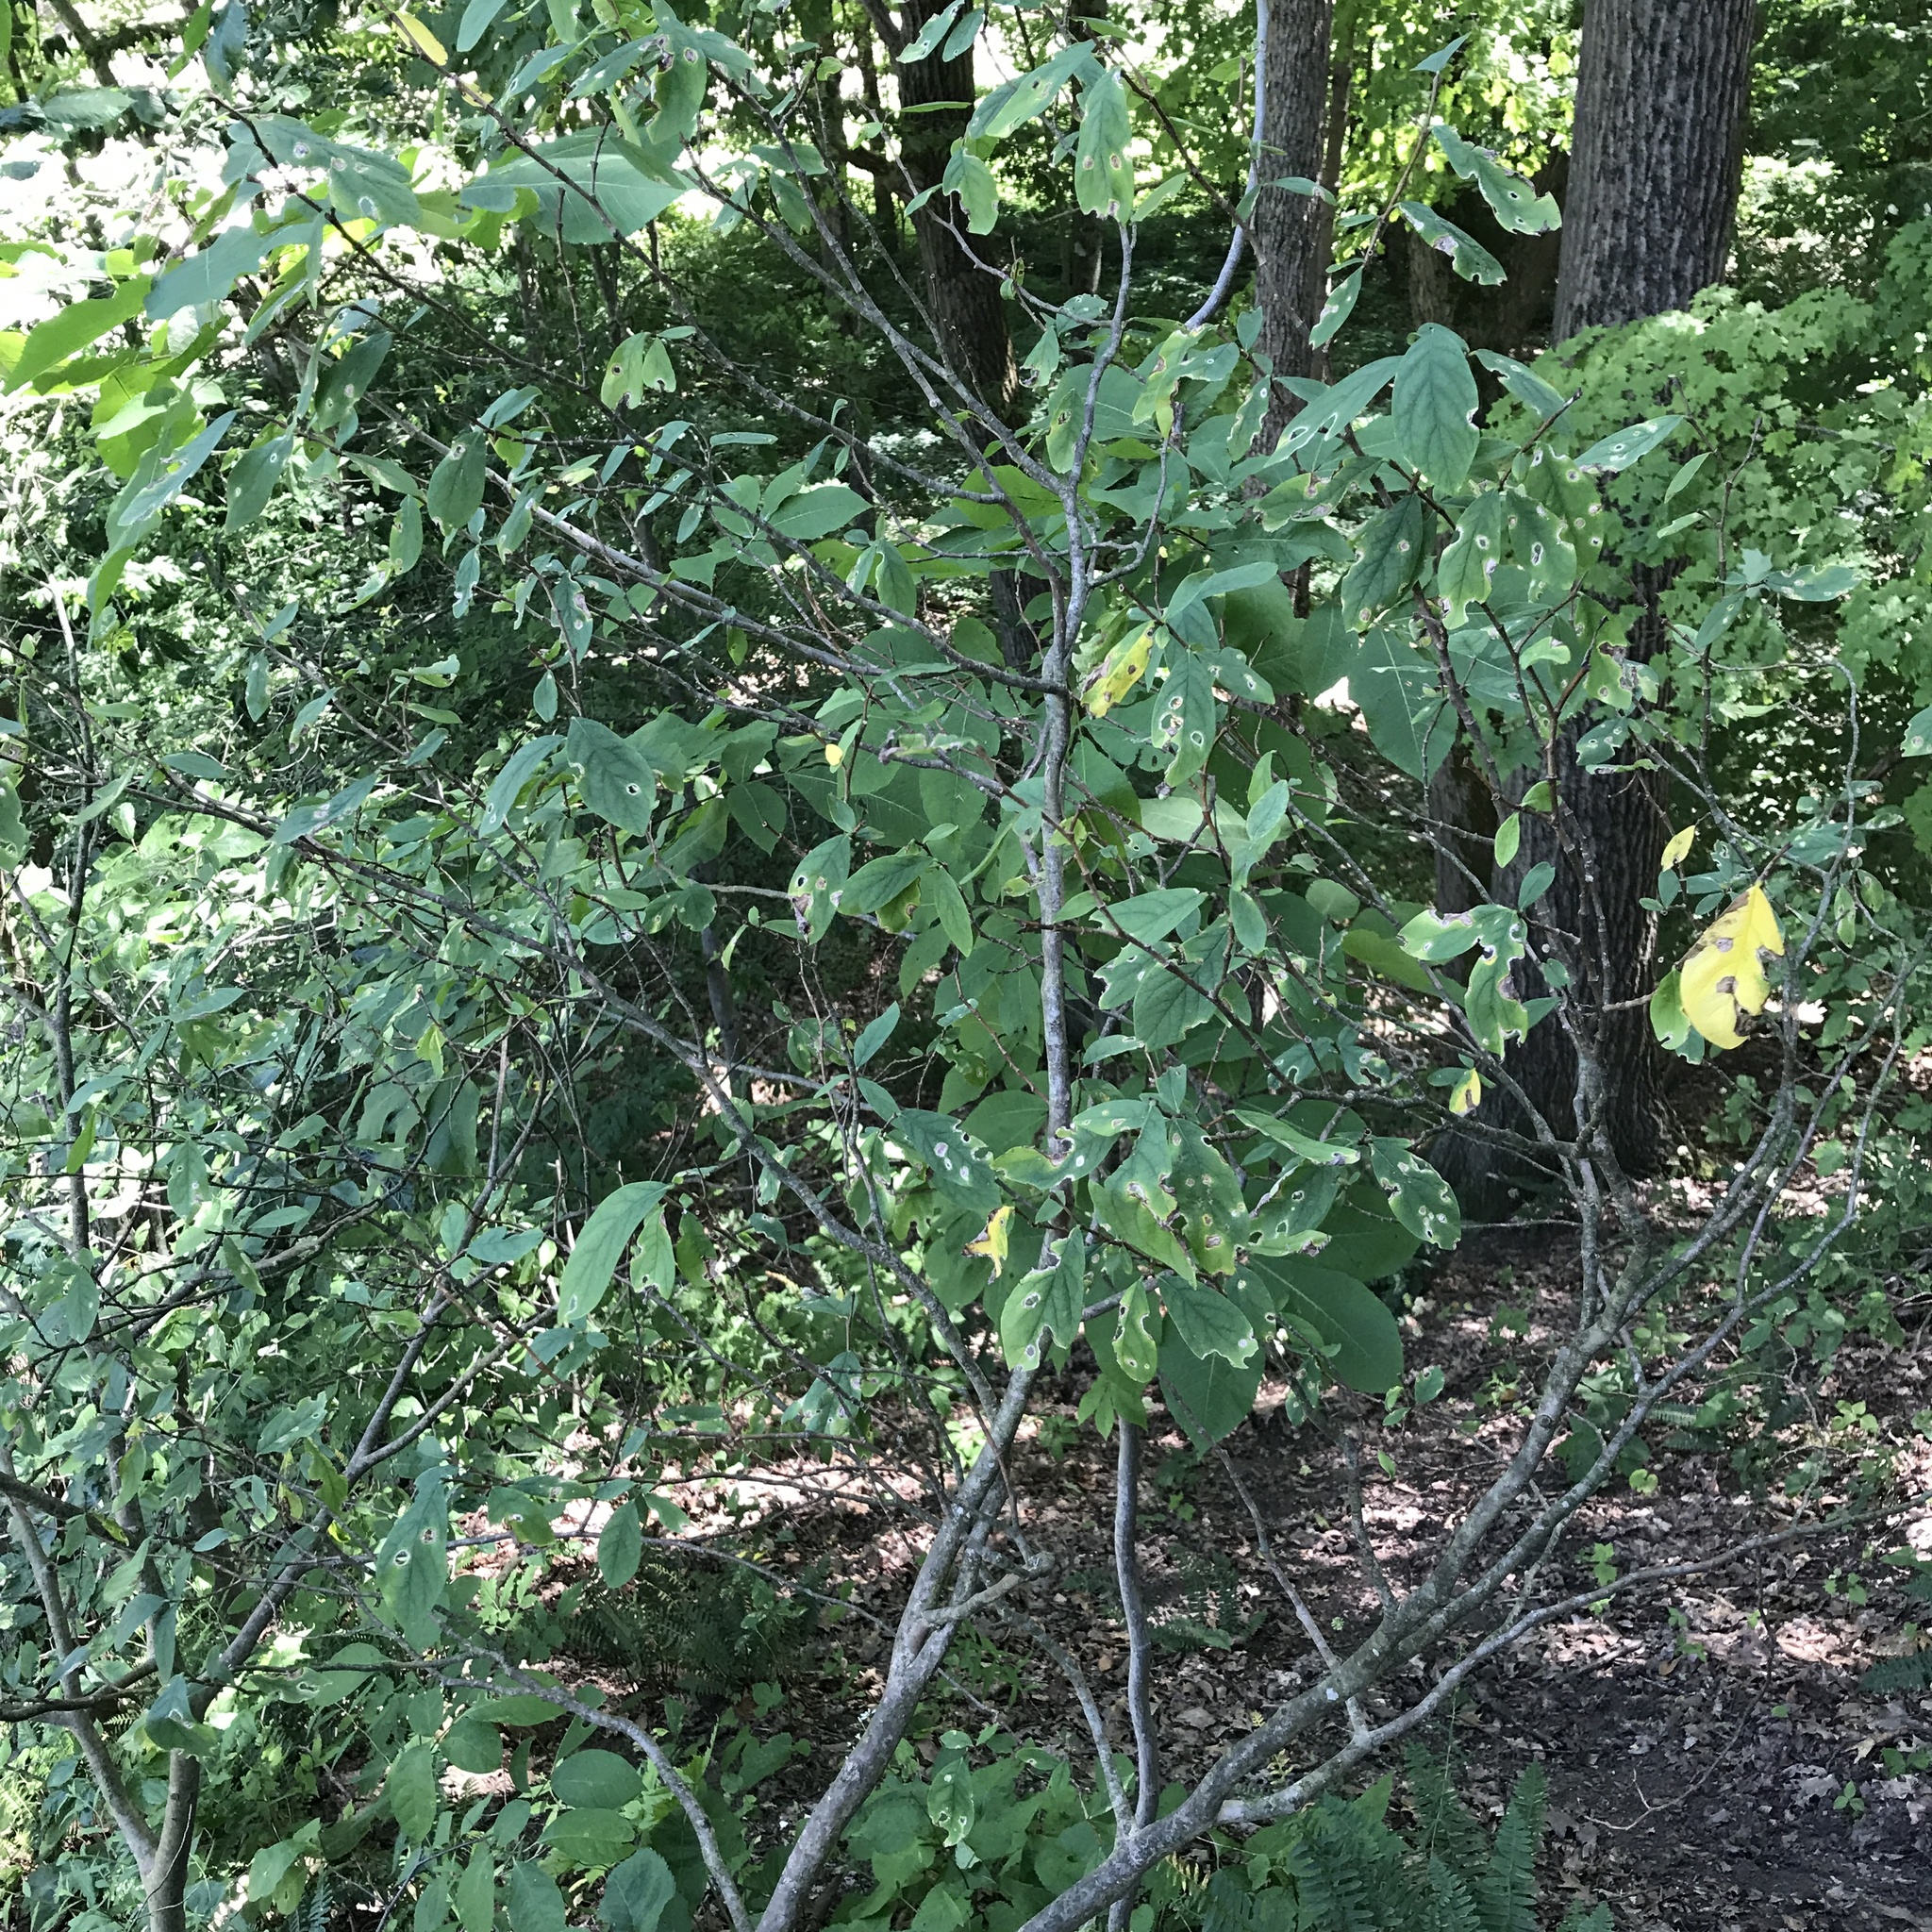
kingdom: Plantae
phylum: Tracheophyta
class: Magnoliopsida
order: Malvales
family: Thymelaeaceae
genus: Dirca
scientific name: Dirca palustris
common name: Leatherwood
